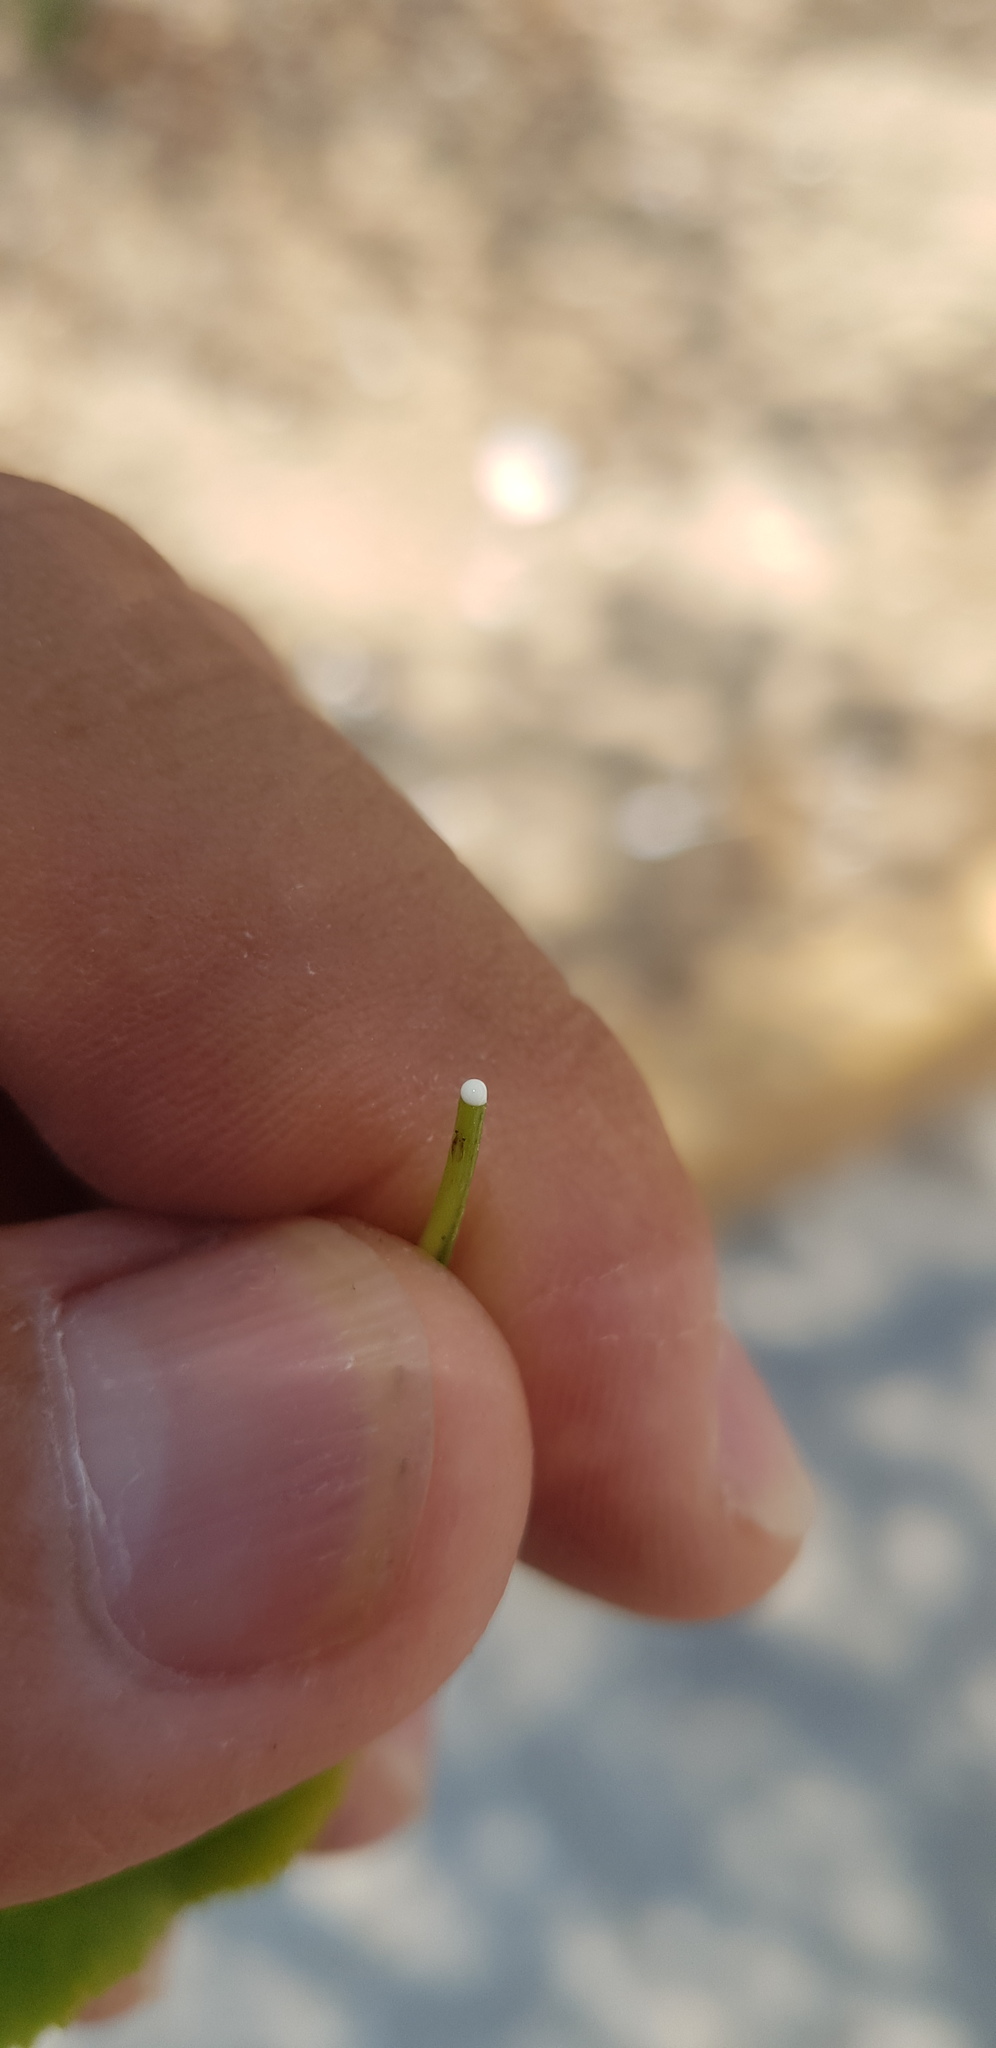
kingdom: Plantae
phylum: Tracheophyta
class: Magnoliopsida
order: Malpighiales
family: Euphorbiaceae
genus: Pleradenophora
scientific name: Pleradenophora lottiae
